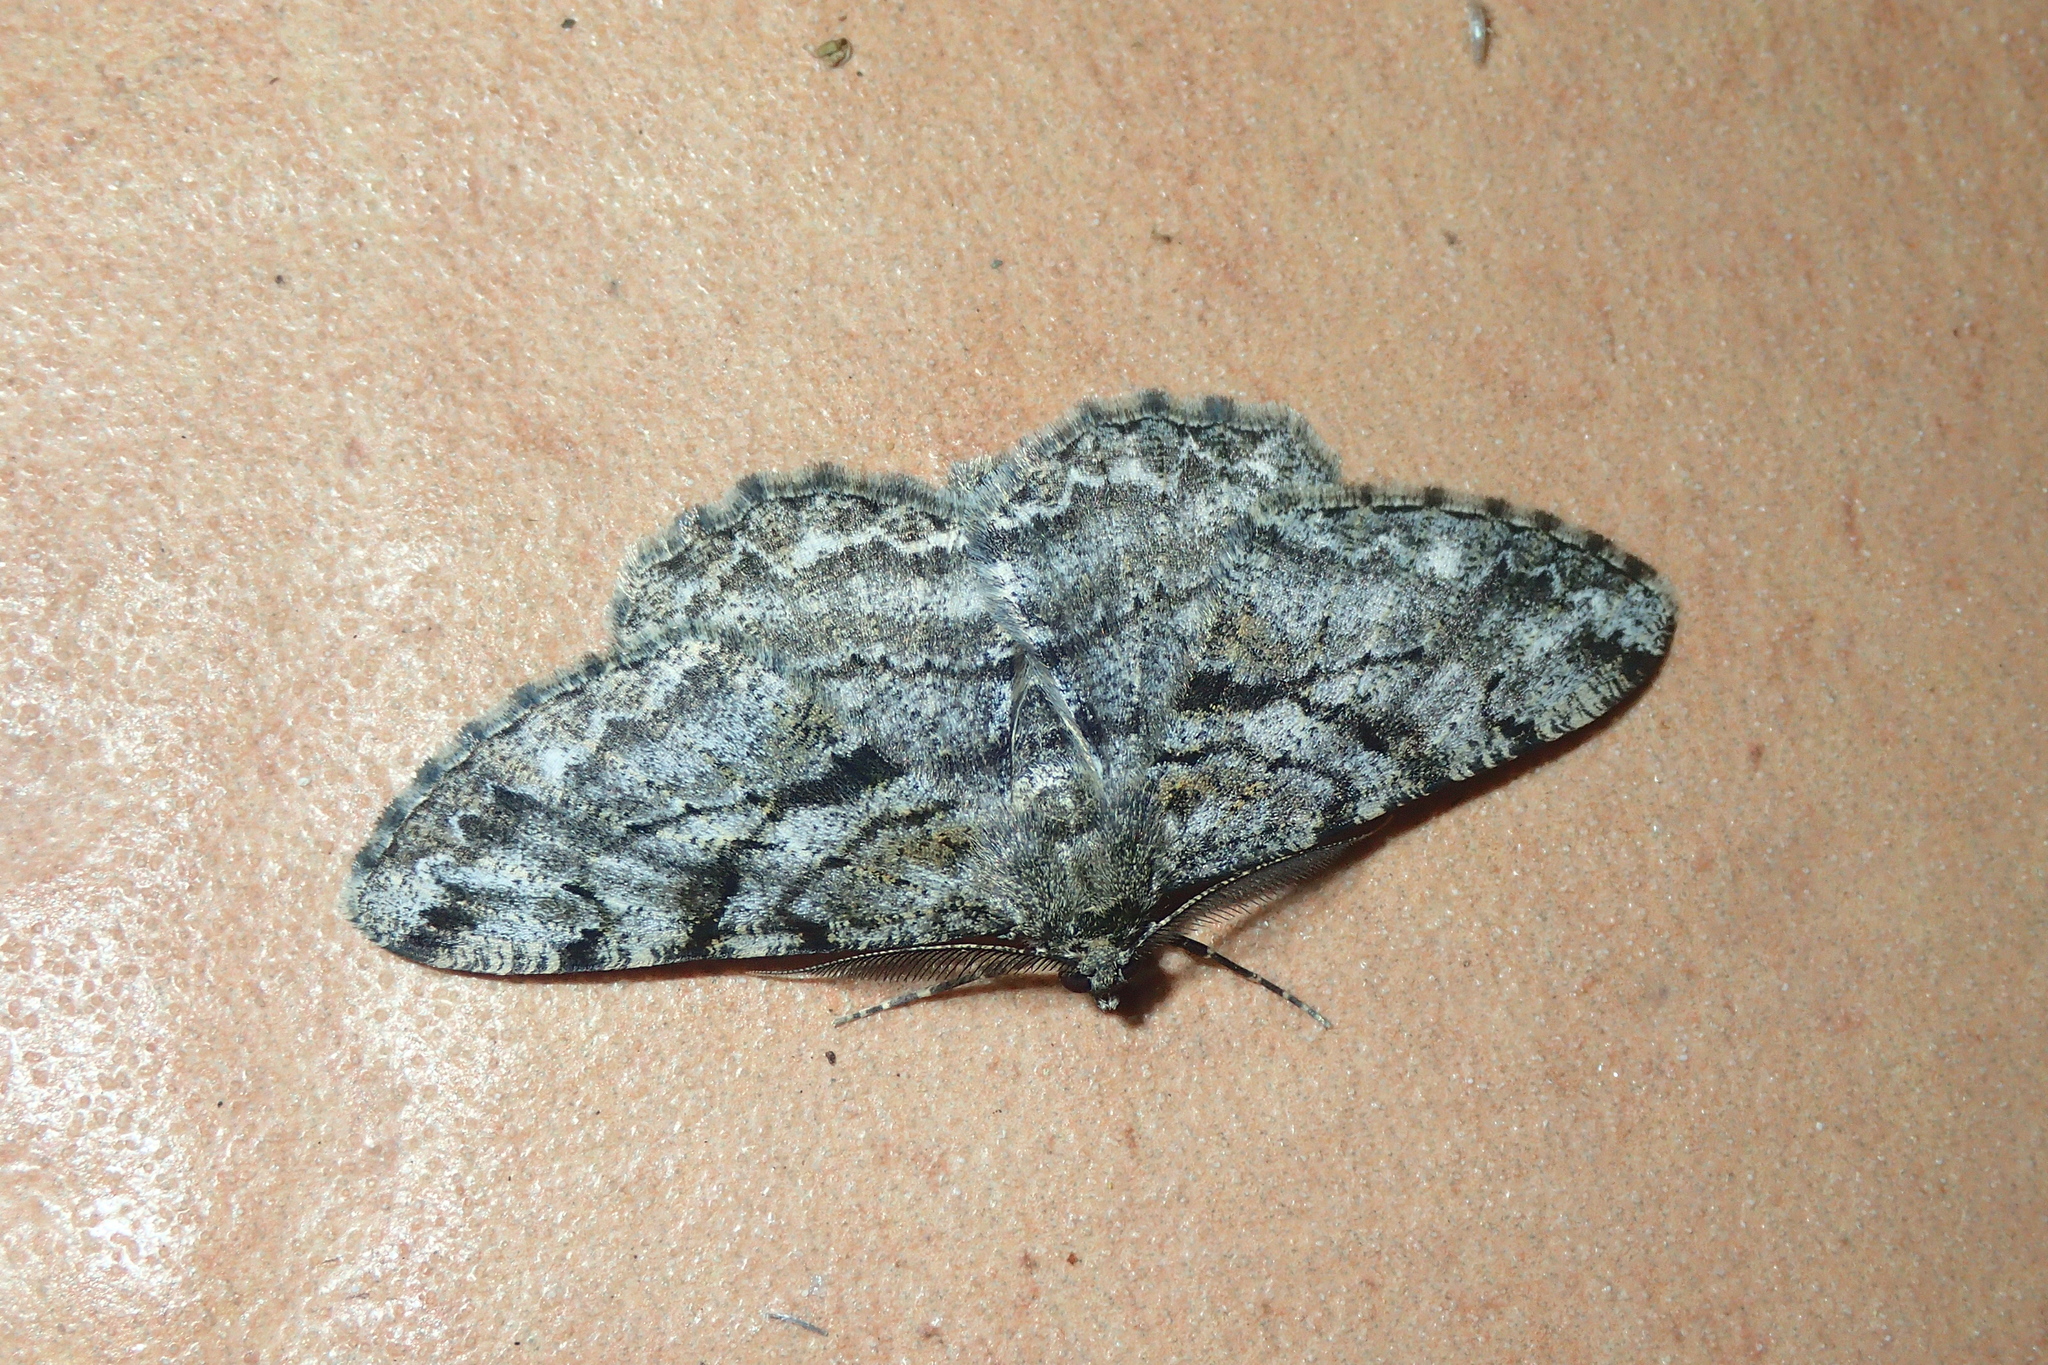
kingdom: Animalia
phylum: Arthropoda
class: Insecta
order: Lepidoptera
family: Geometridae
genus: Peribatodes
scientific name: Peribatodes rhomboidaria
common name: Willow beauty
